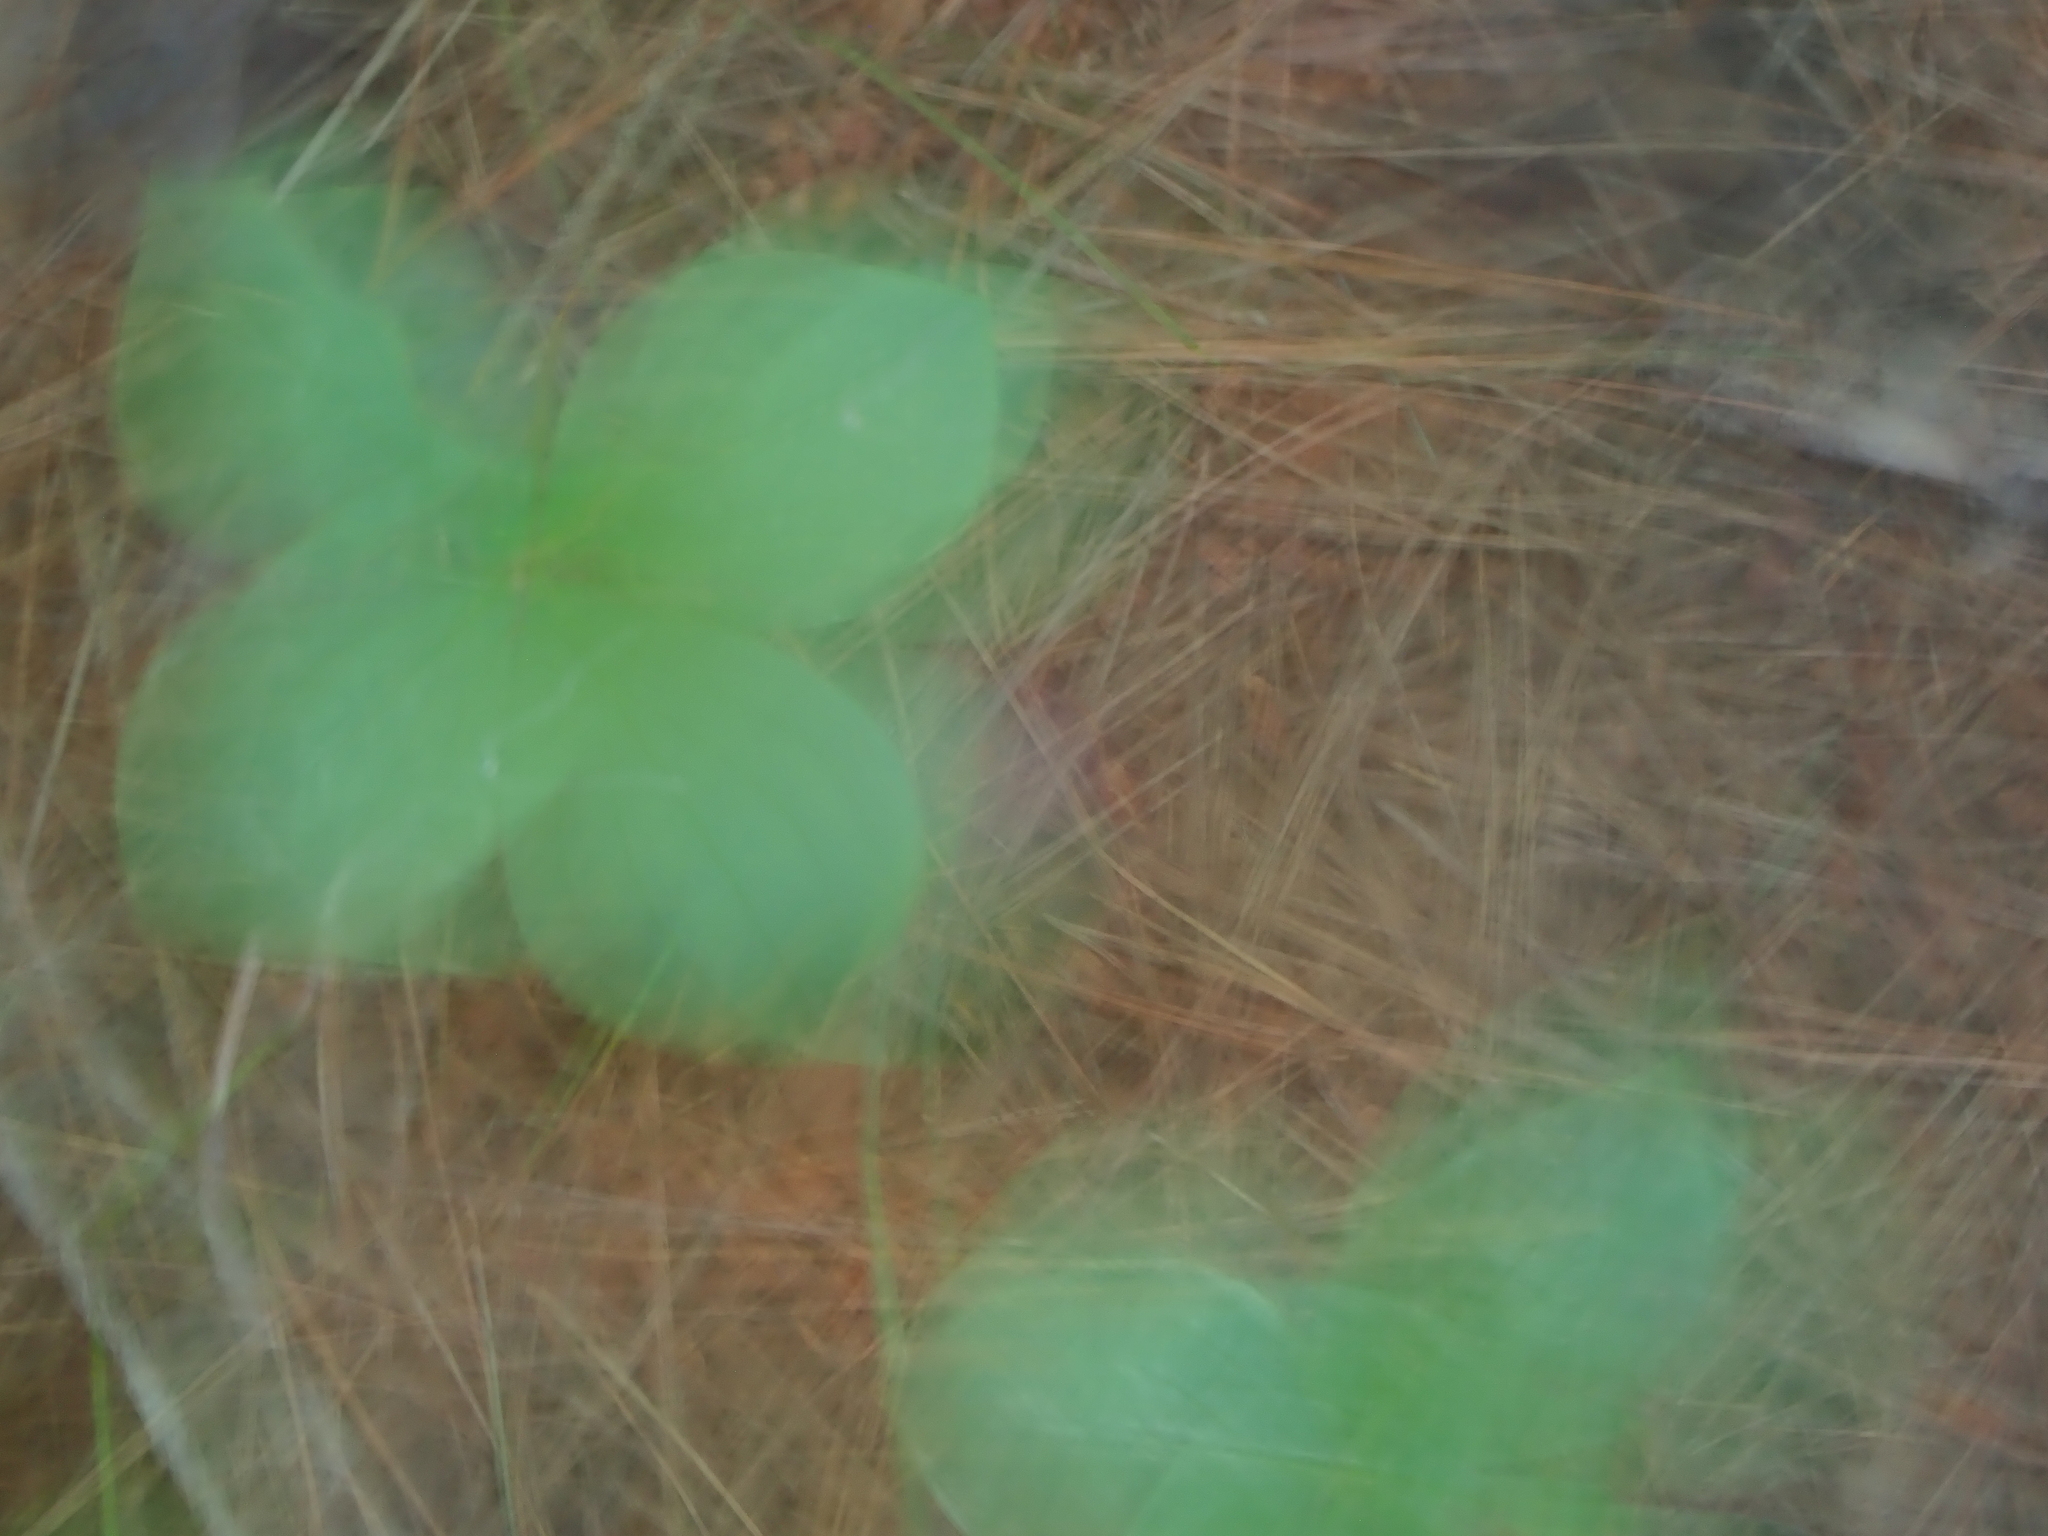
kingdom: Plantae
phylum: Tracheophyta
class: Magnoliopsida
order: Cornales
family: Cornaceae
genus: Cornus
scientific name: Cornus canadensis
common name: Creeping dogwood
